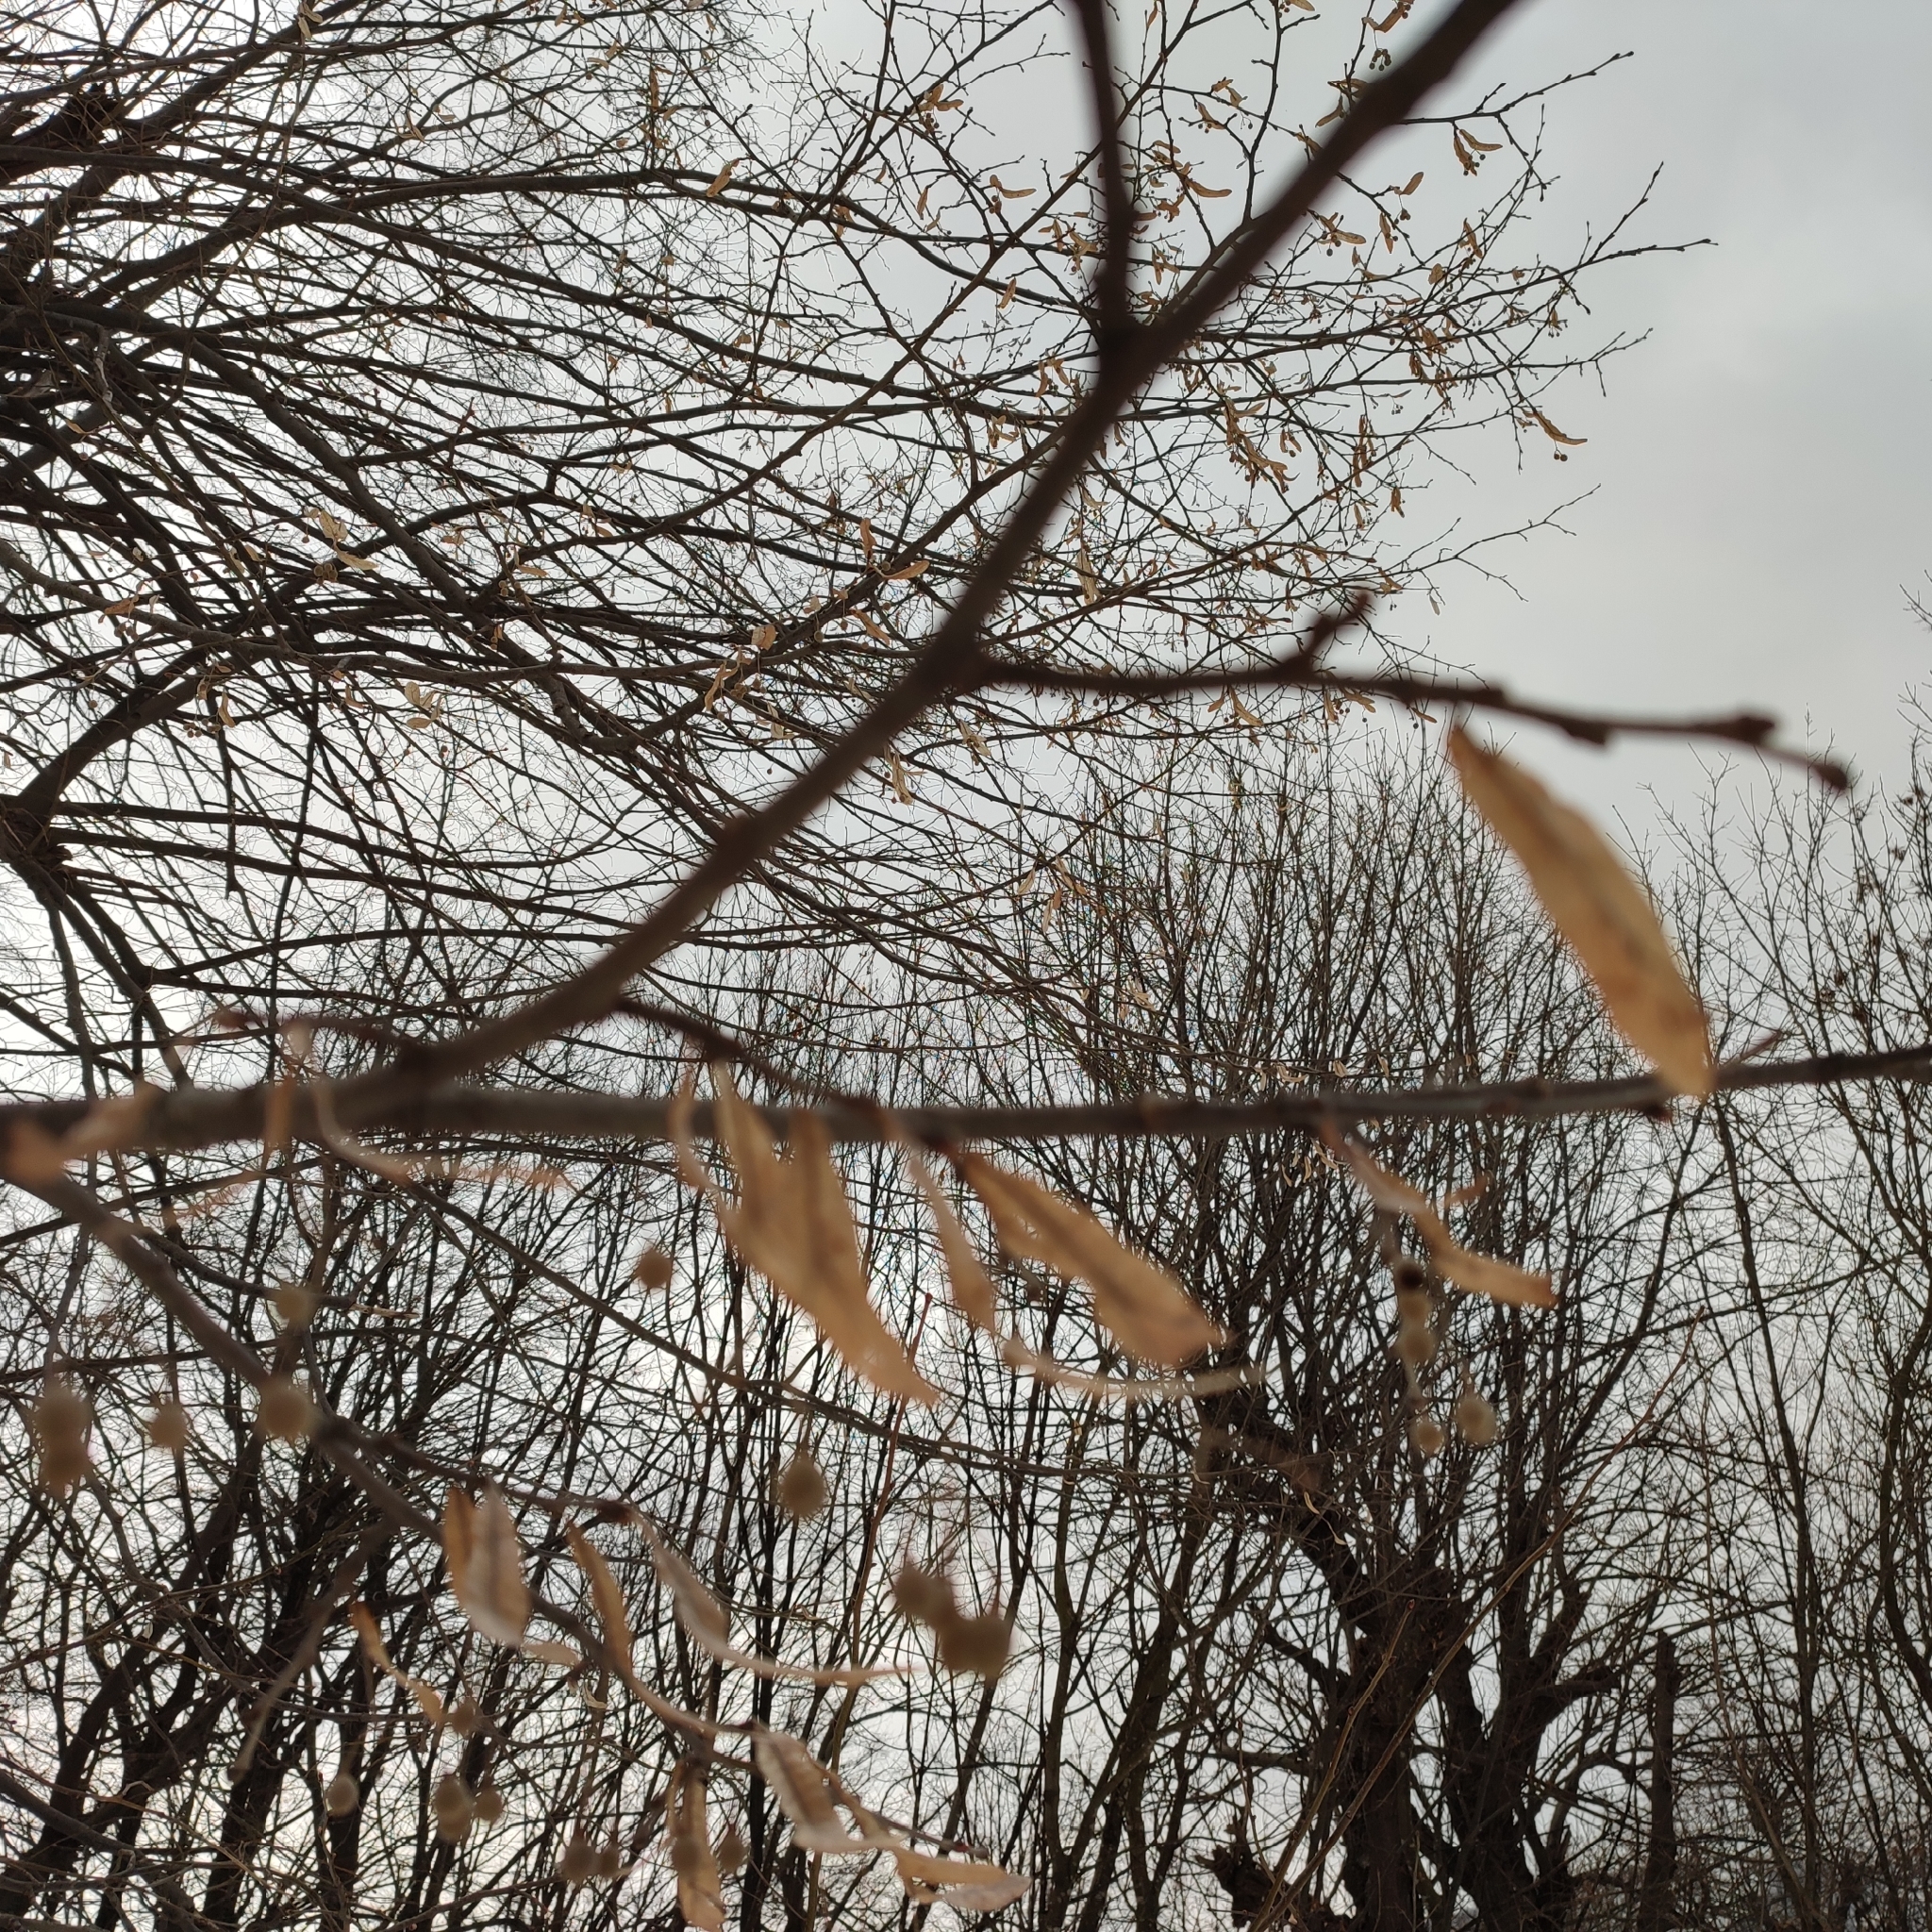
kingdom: Plantae
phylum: Tracheophyta
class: Magnoliopsida
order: Malvales
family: Malvaceae
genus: Tilia
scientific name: Tilia cordata
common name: Small-leaved lime
